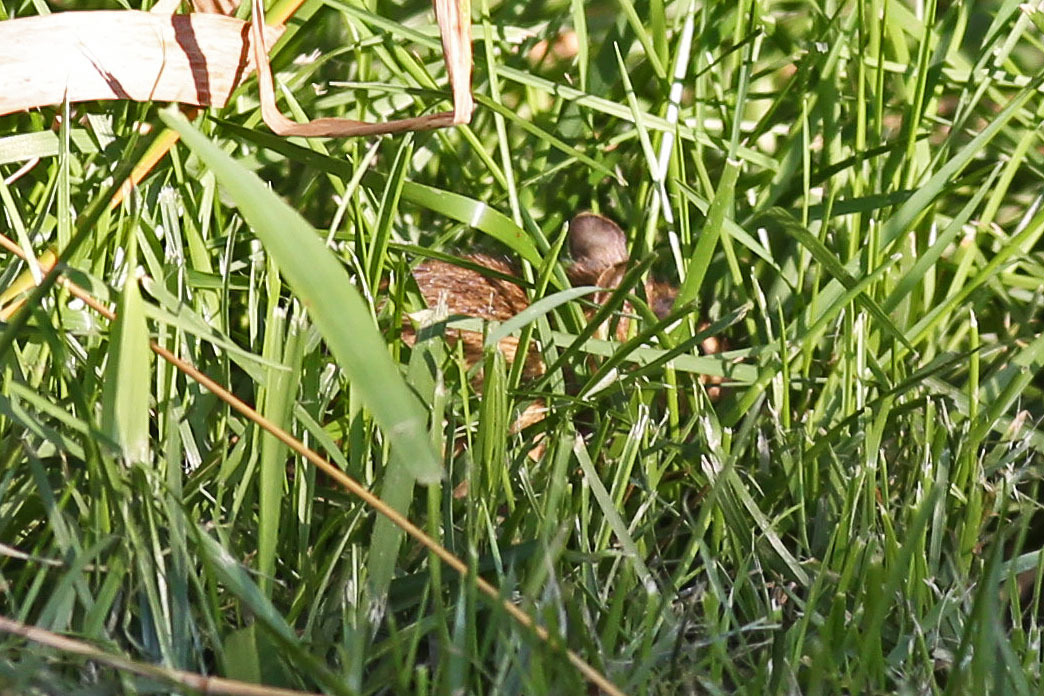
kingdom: Animalia
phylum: Chordata
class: Mammalia
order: Rodentia
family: Dipodidae
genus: Zapus
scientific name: Zapus hudsonius
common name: Meadow jumping mouse
